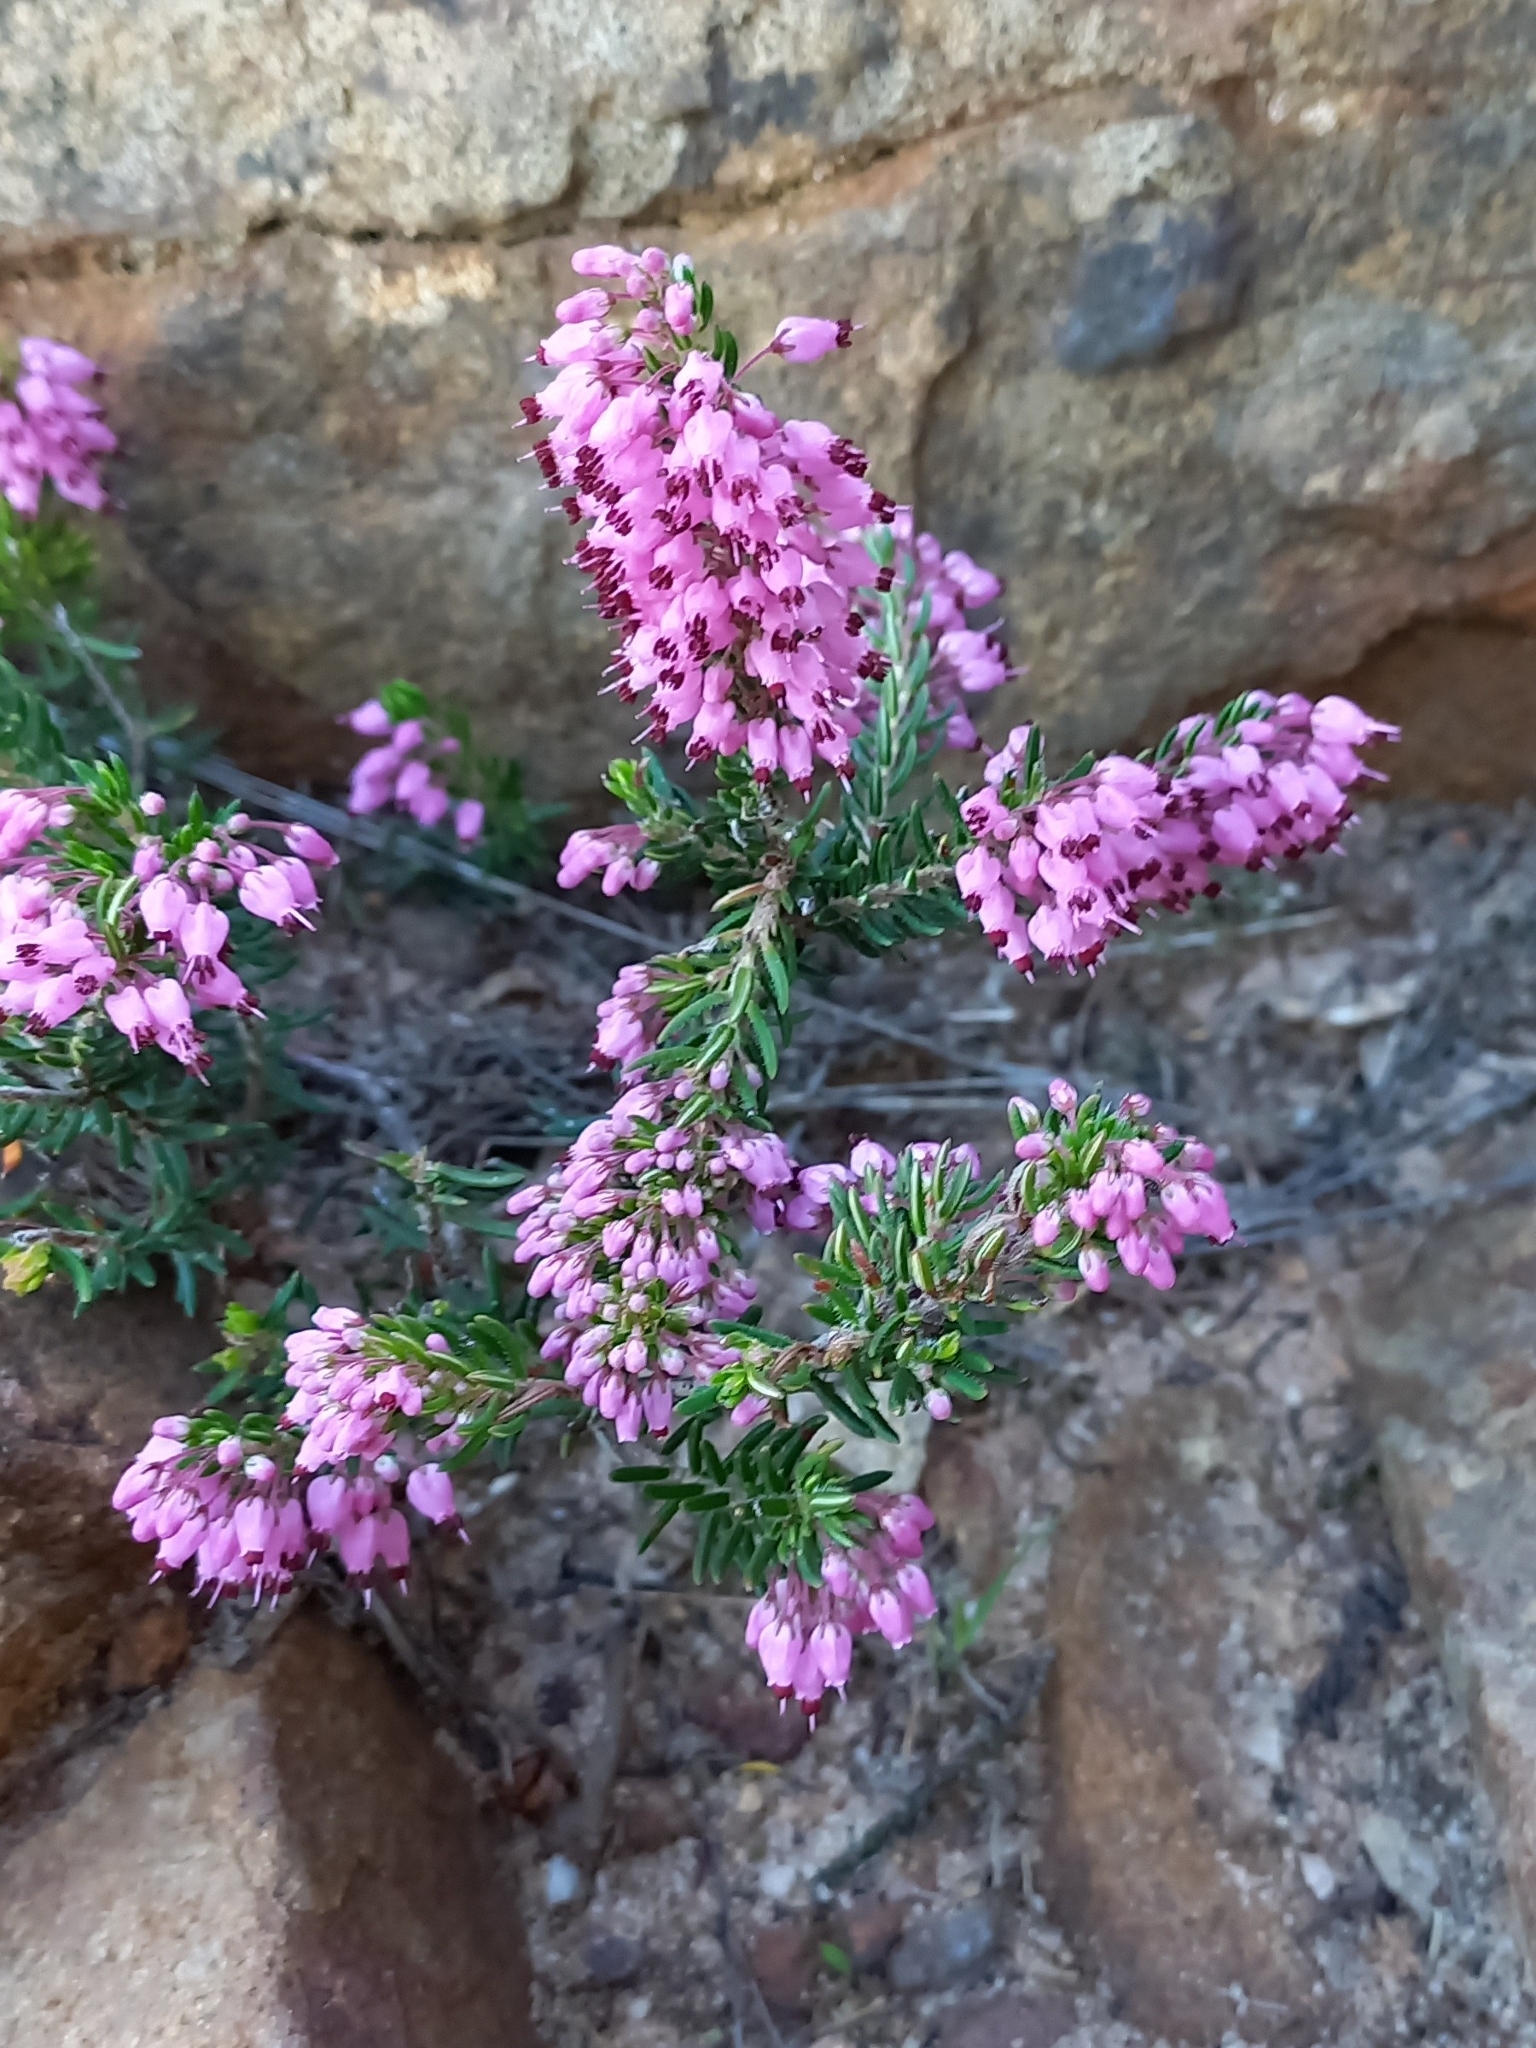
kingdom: Plantae
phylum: Tracheophyta
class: Magnoliopsida
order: Ericales
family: Ericaceae
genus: Erica
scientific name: Erica nudiflora
